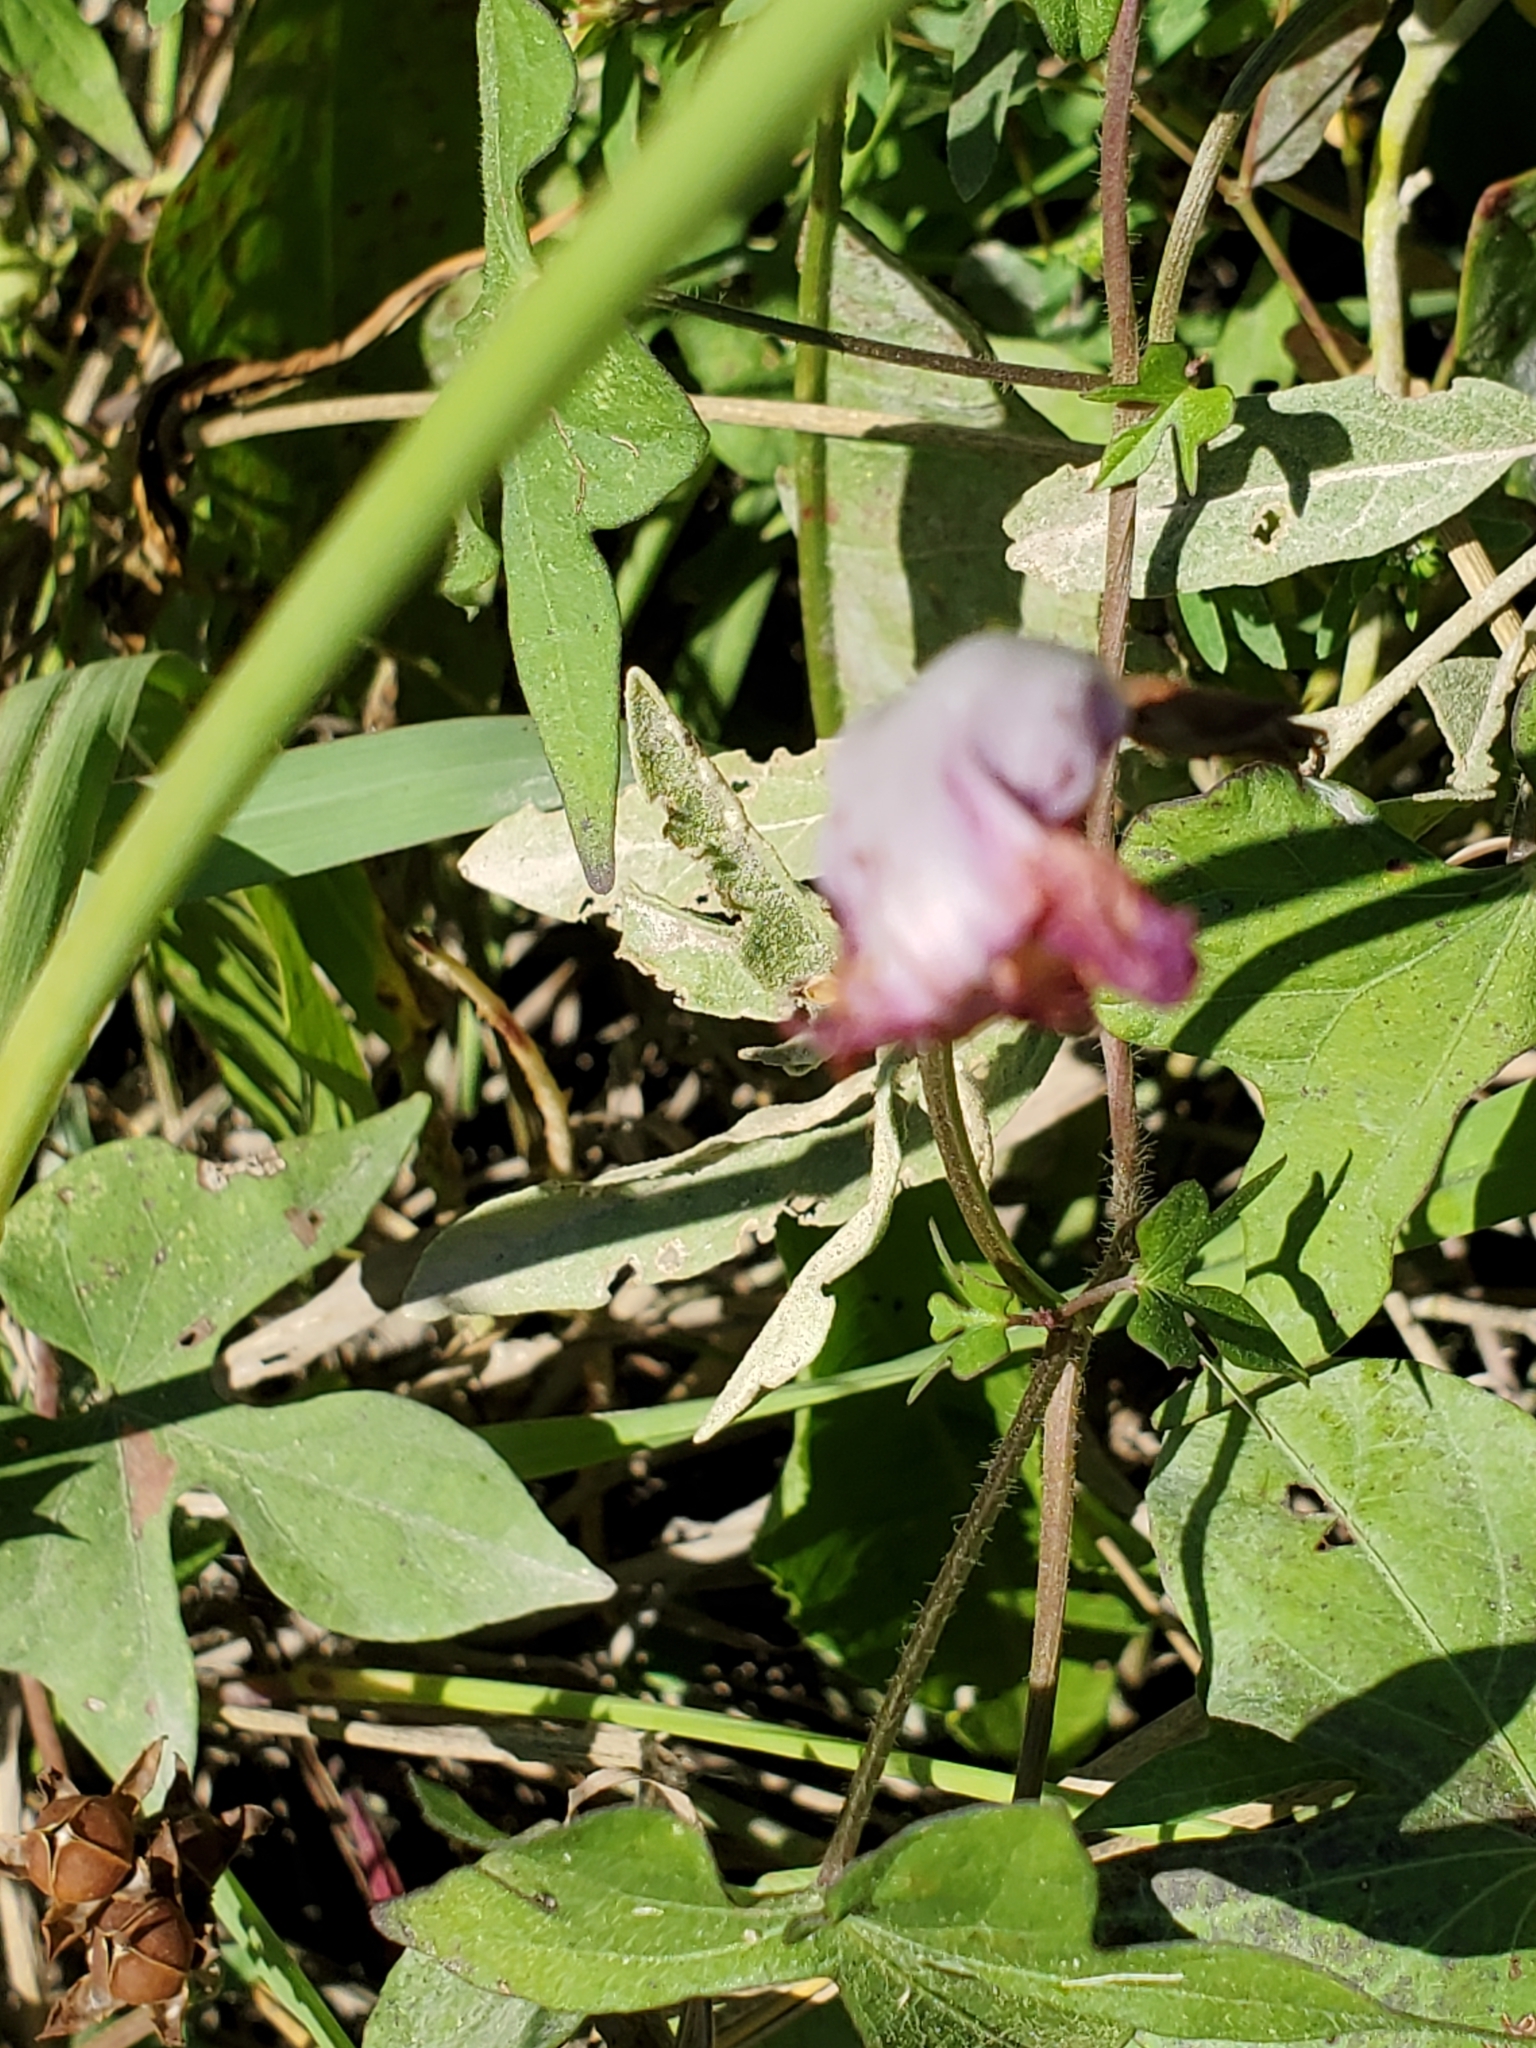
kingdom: Plantae
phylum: Tracheophyta
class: Magnoliopsida
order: Solanales
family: Convolvulaceae
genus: Ipomoea
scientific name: Ipomoea cordatotriloba
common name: Cotton morning glory
